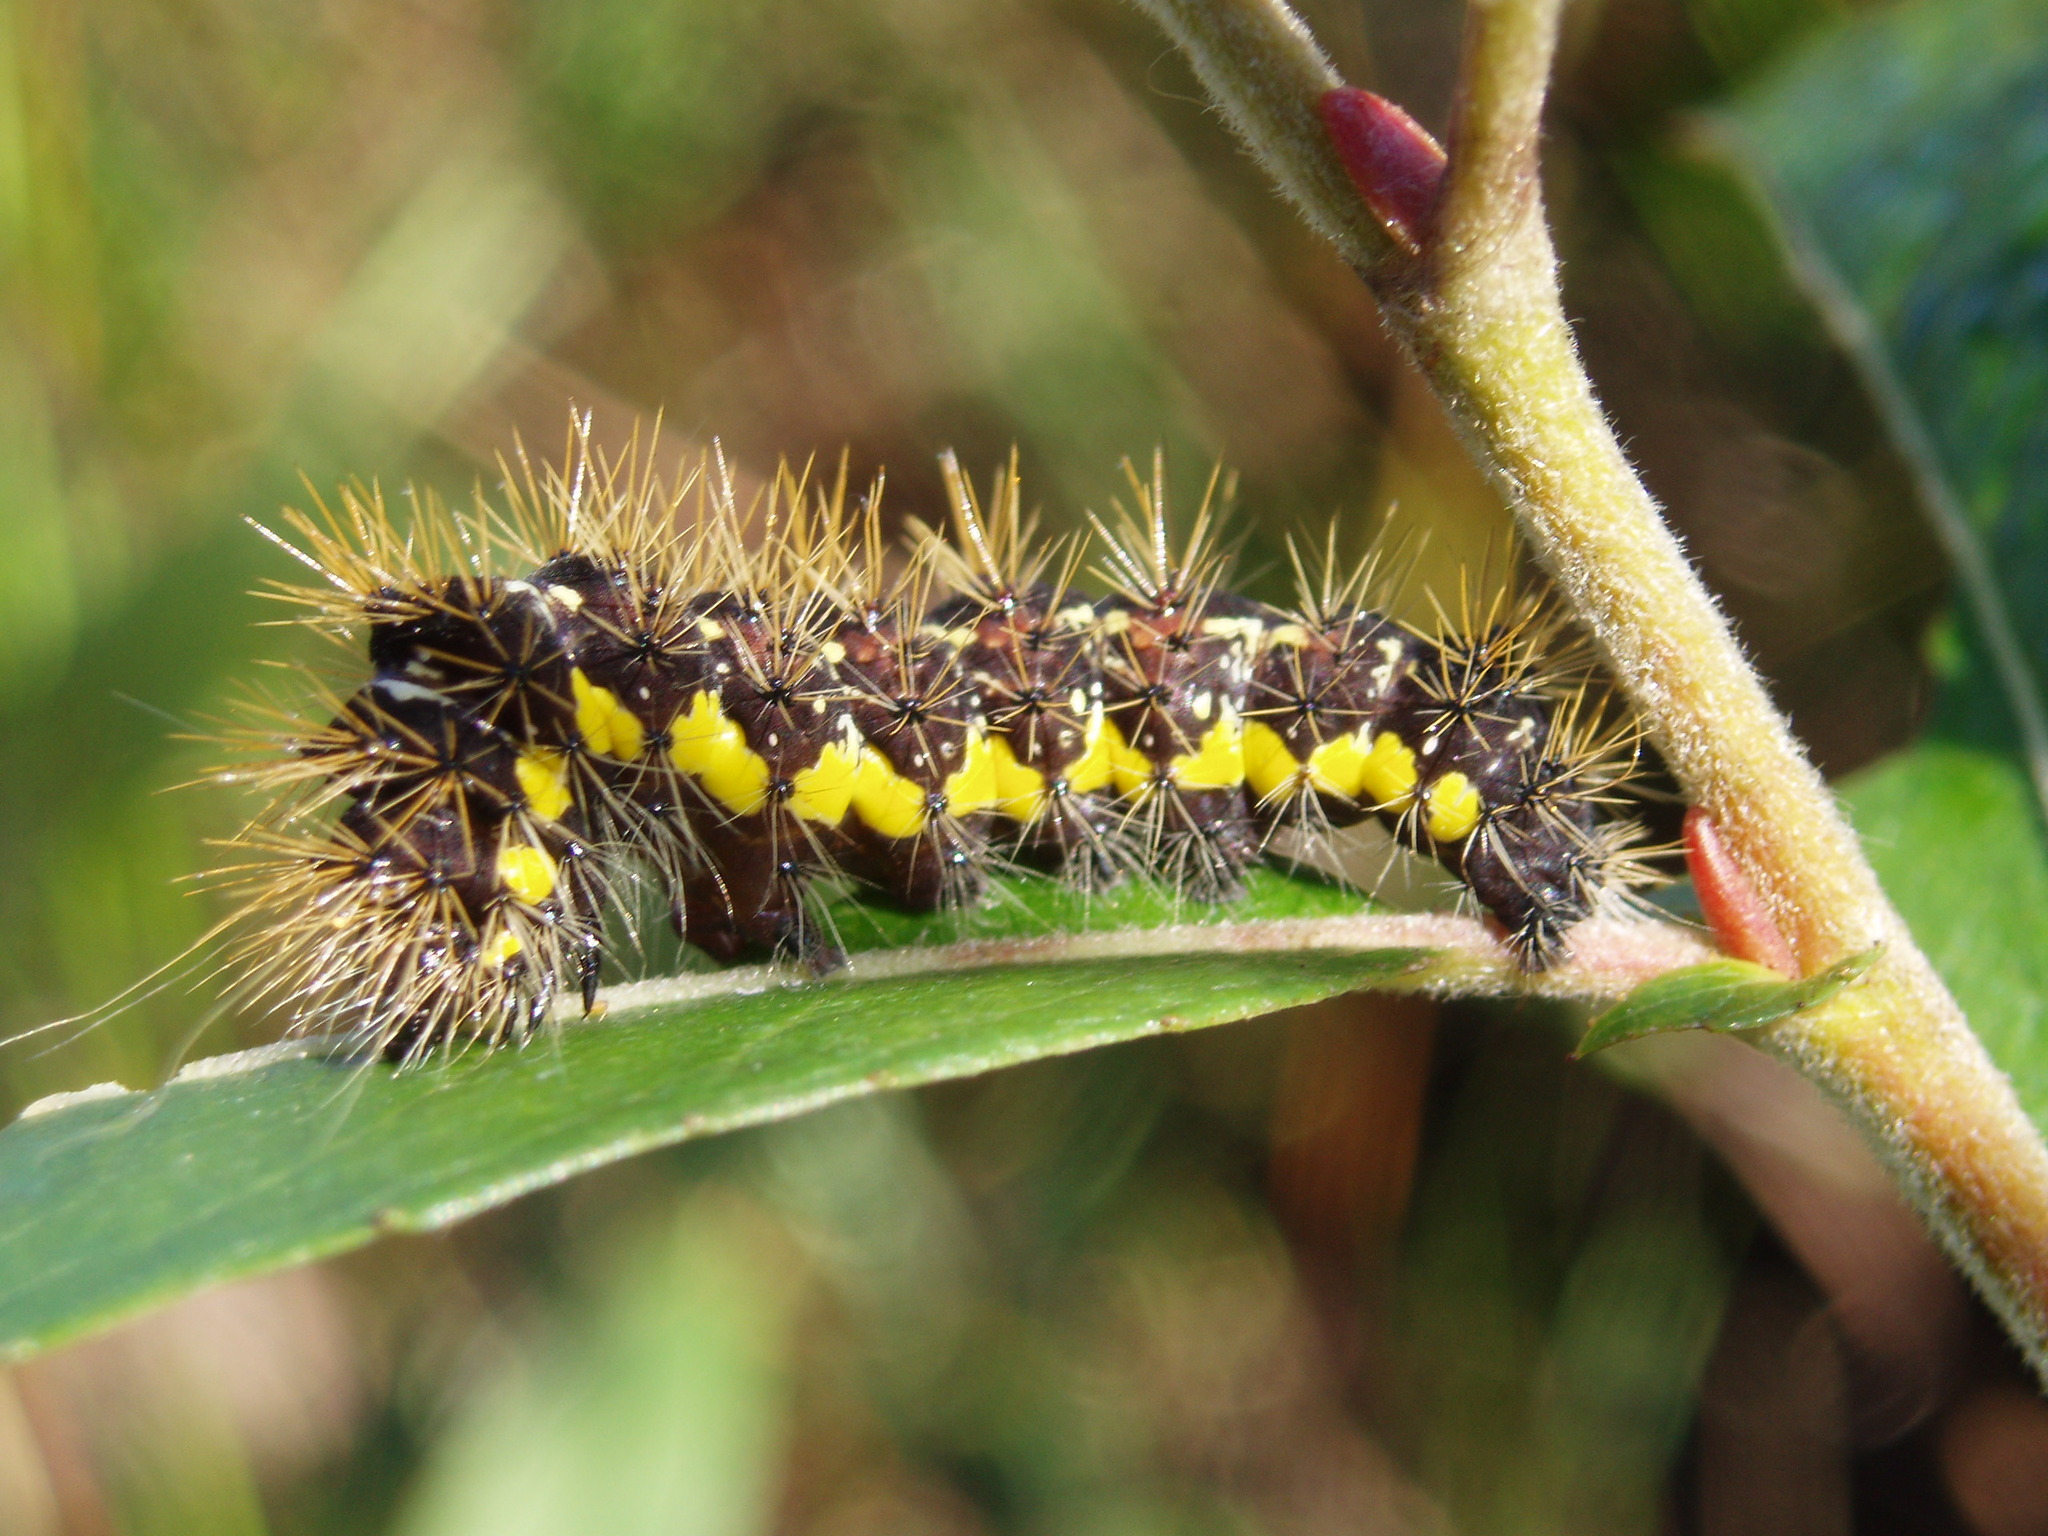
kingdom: Animalia
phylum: Arthropoda
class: Insecta
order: Lepidoptera
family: Noctuidae
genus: Acronicta
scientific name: Acronicta oblinita
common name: Smeared dagger
